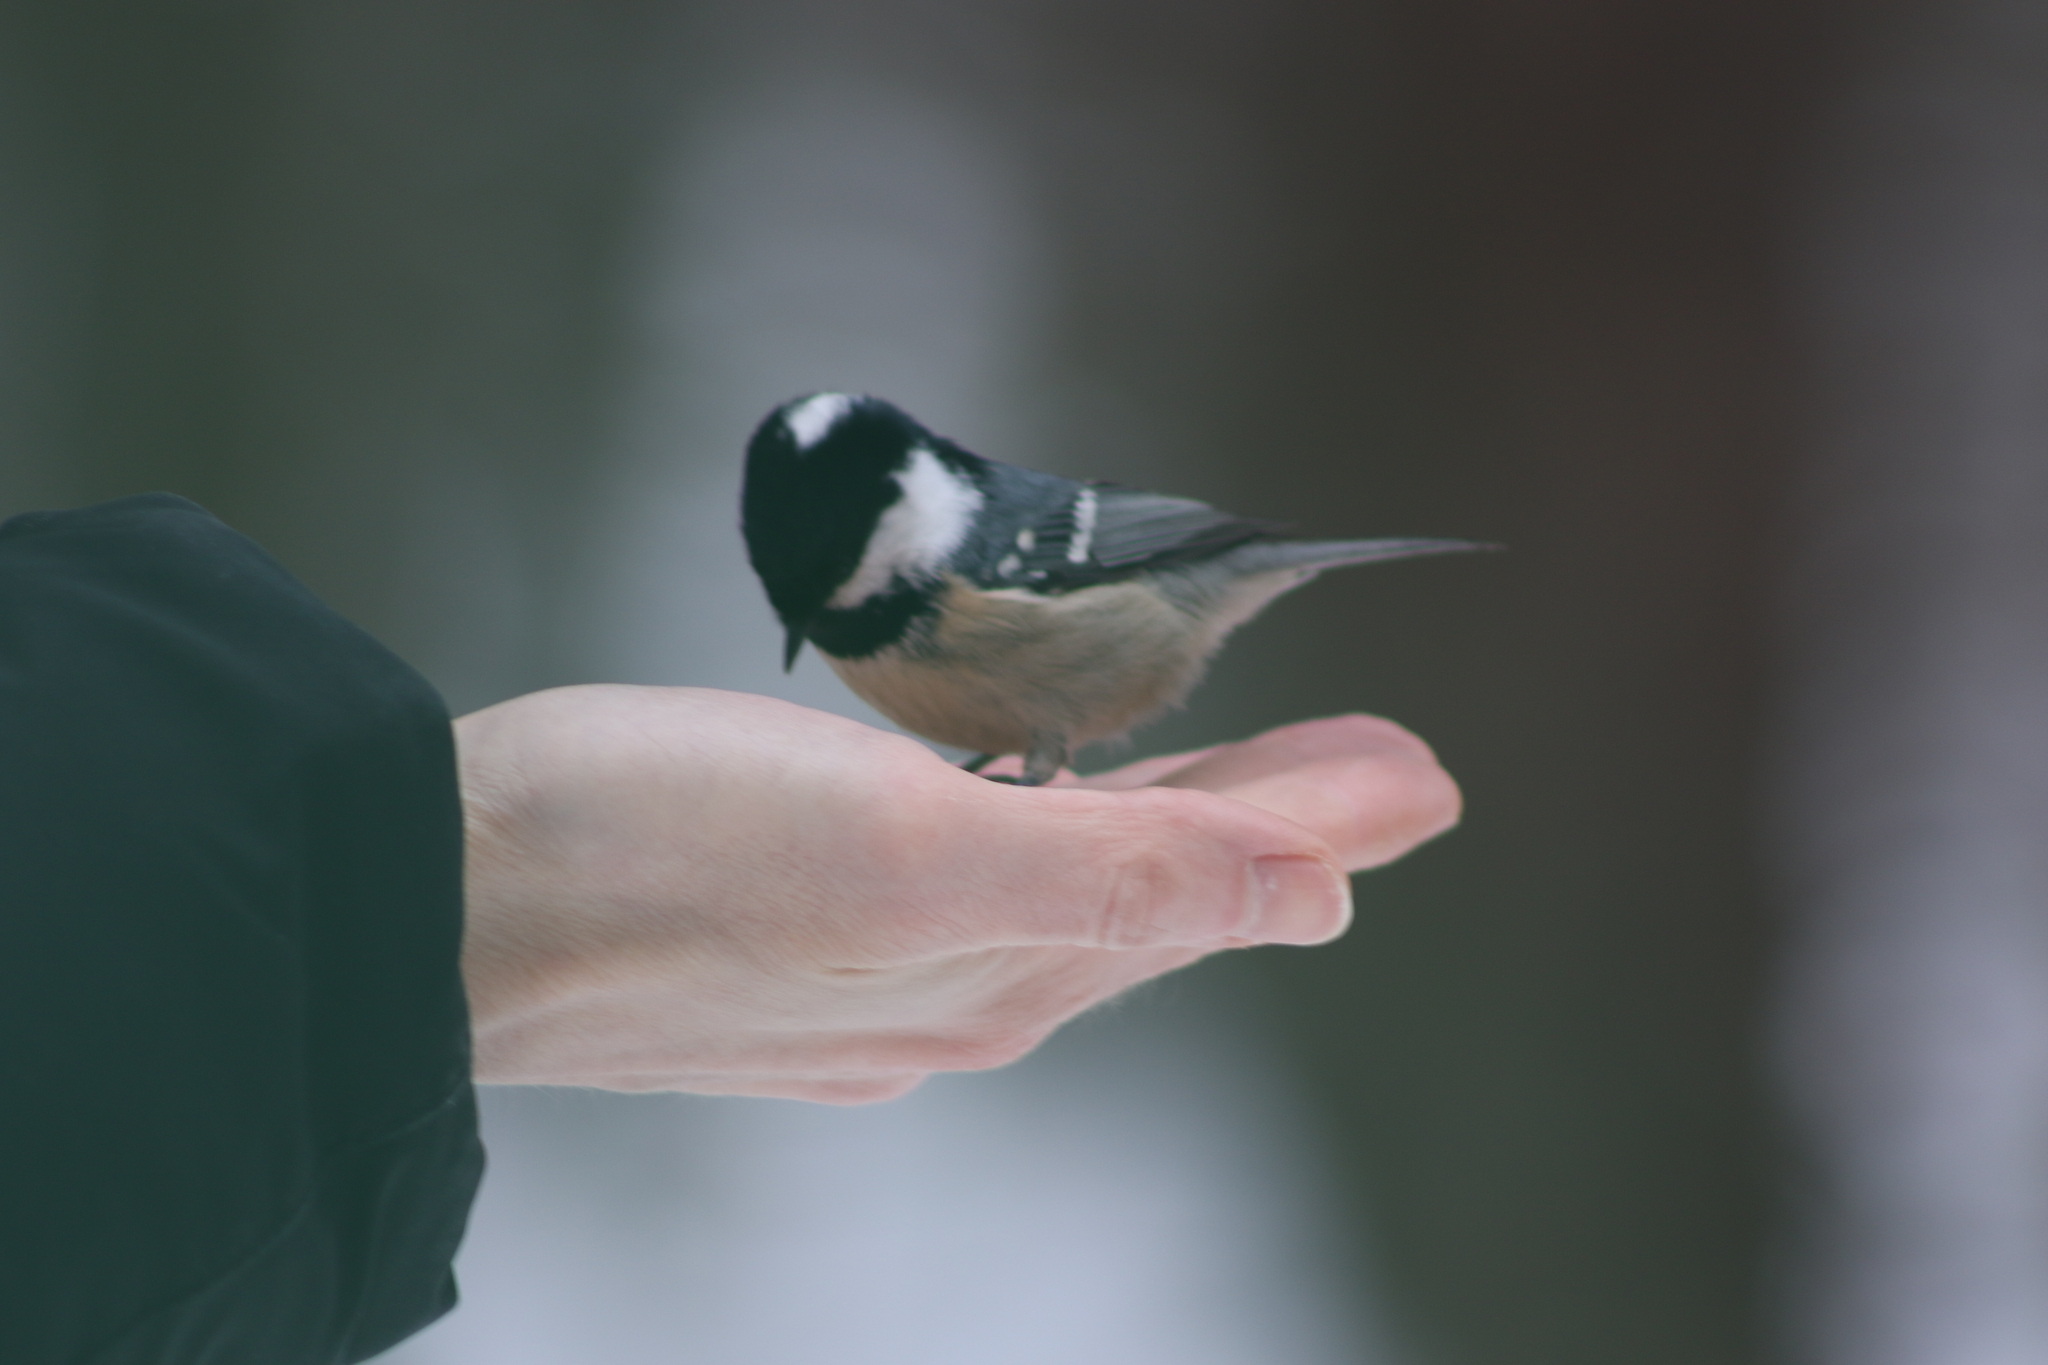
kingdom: Animalia
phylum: Chordata
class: Aves
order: Passeriformes
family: Paridae
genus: Periparus
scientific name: Periparus ater
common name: Coal tit
